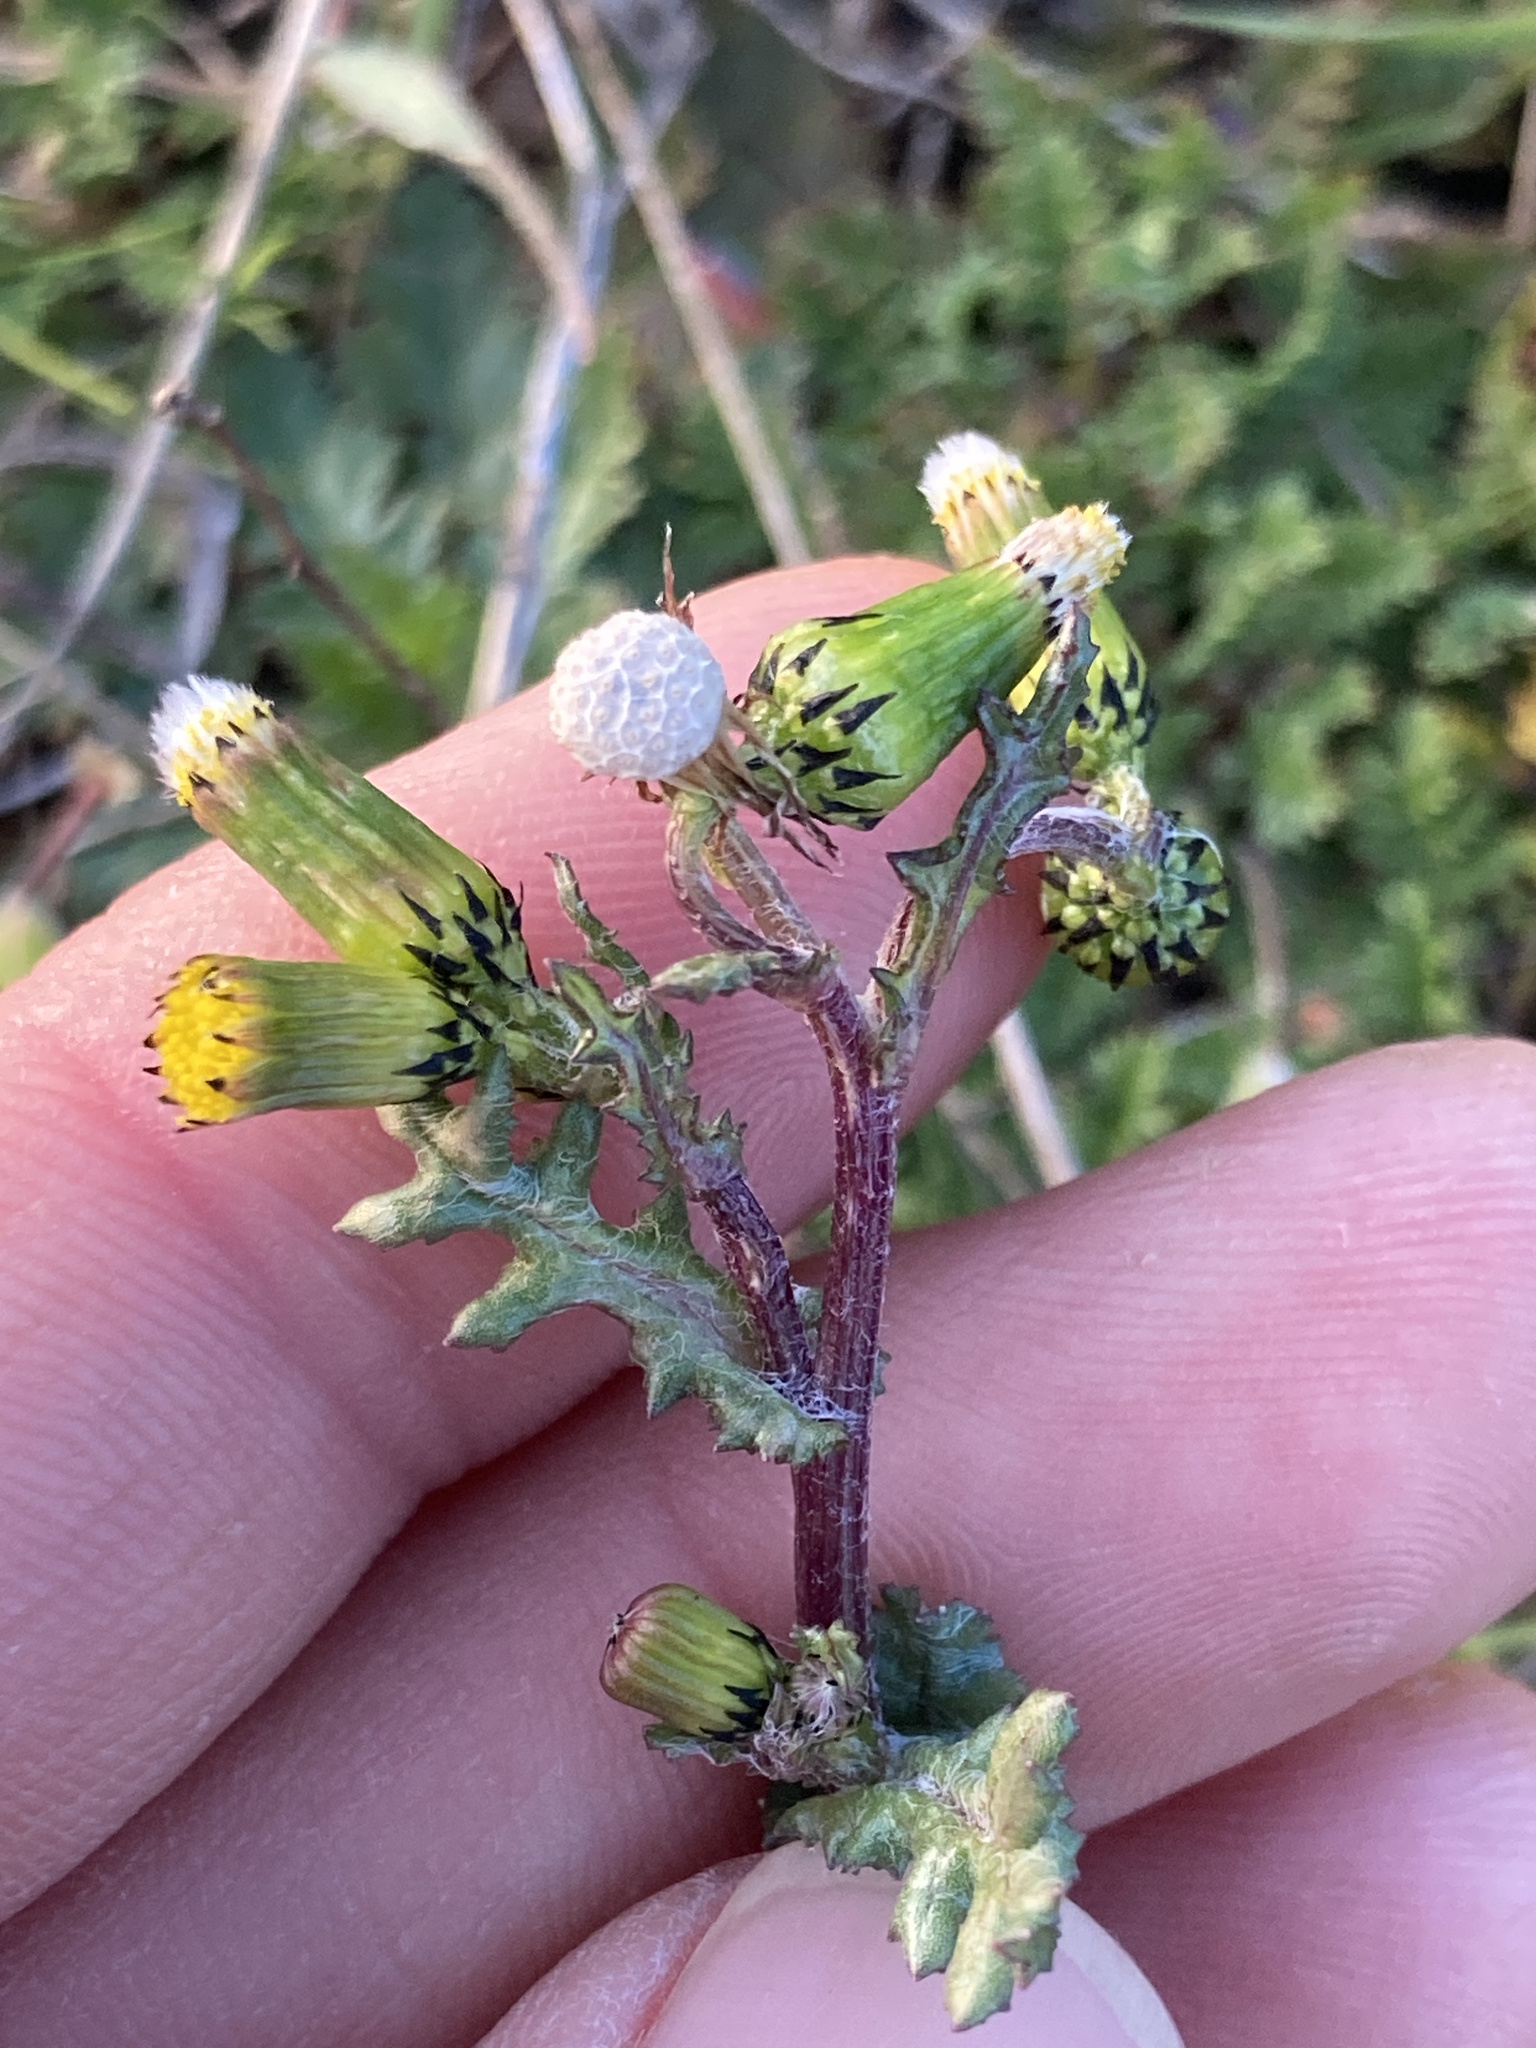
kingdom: Plantae
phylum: Tracheophyta
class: Magnoliopsida
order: Asterales
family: Asteraceae
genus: Senecio
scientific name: Senecio vulgaris
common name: Old-man-in-the-spring
